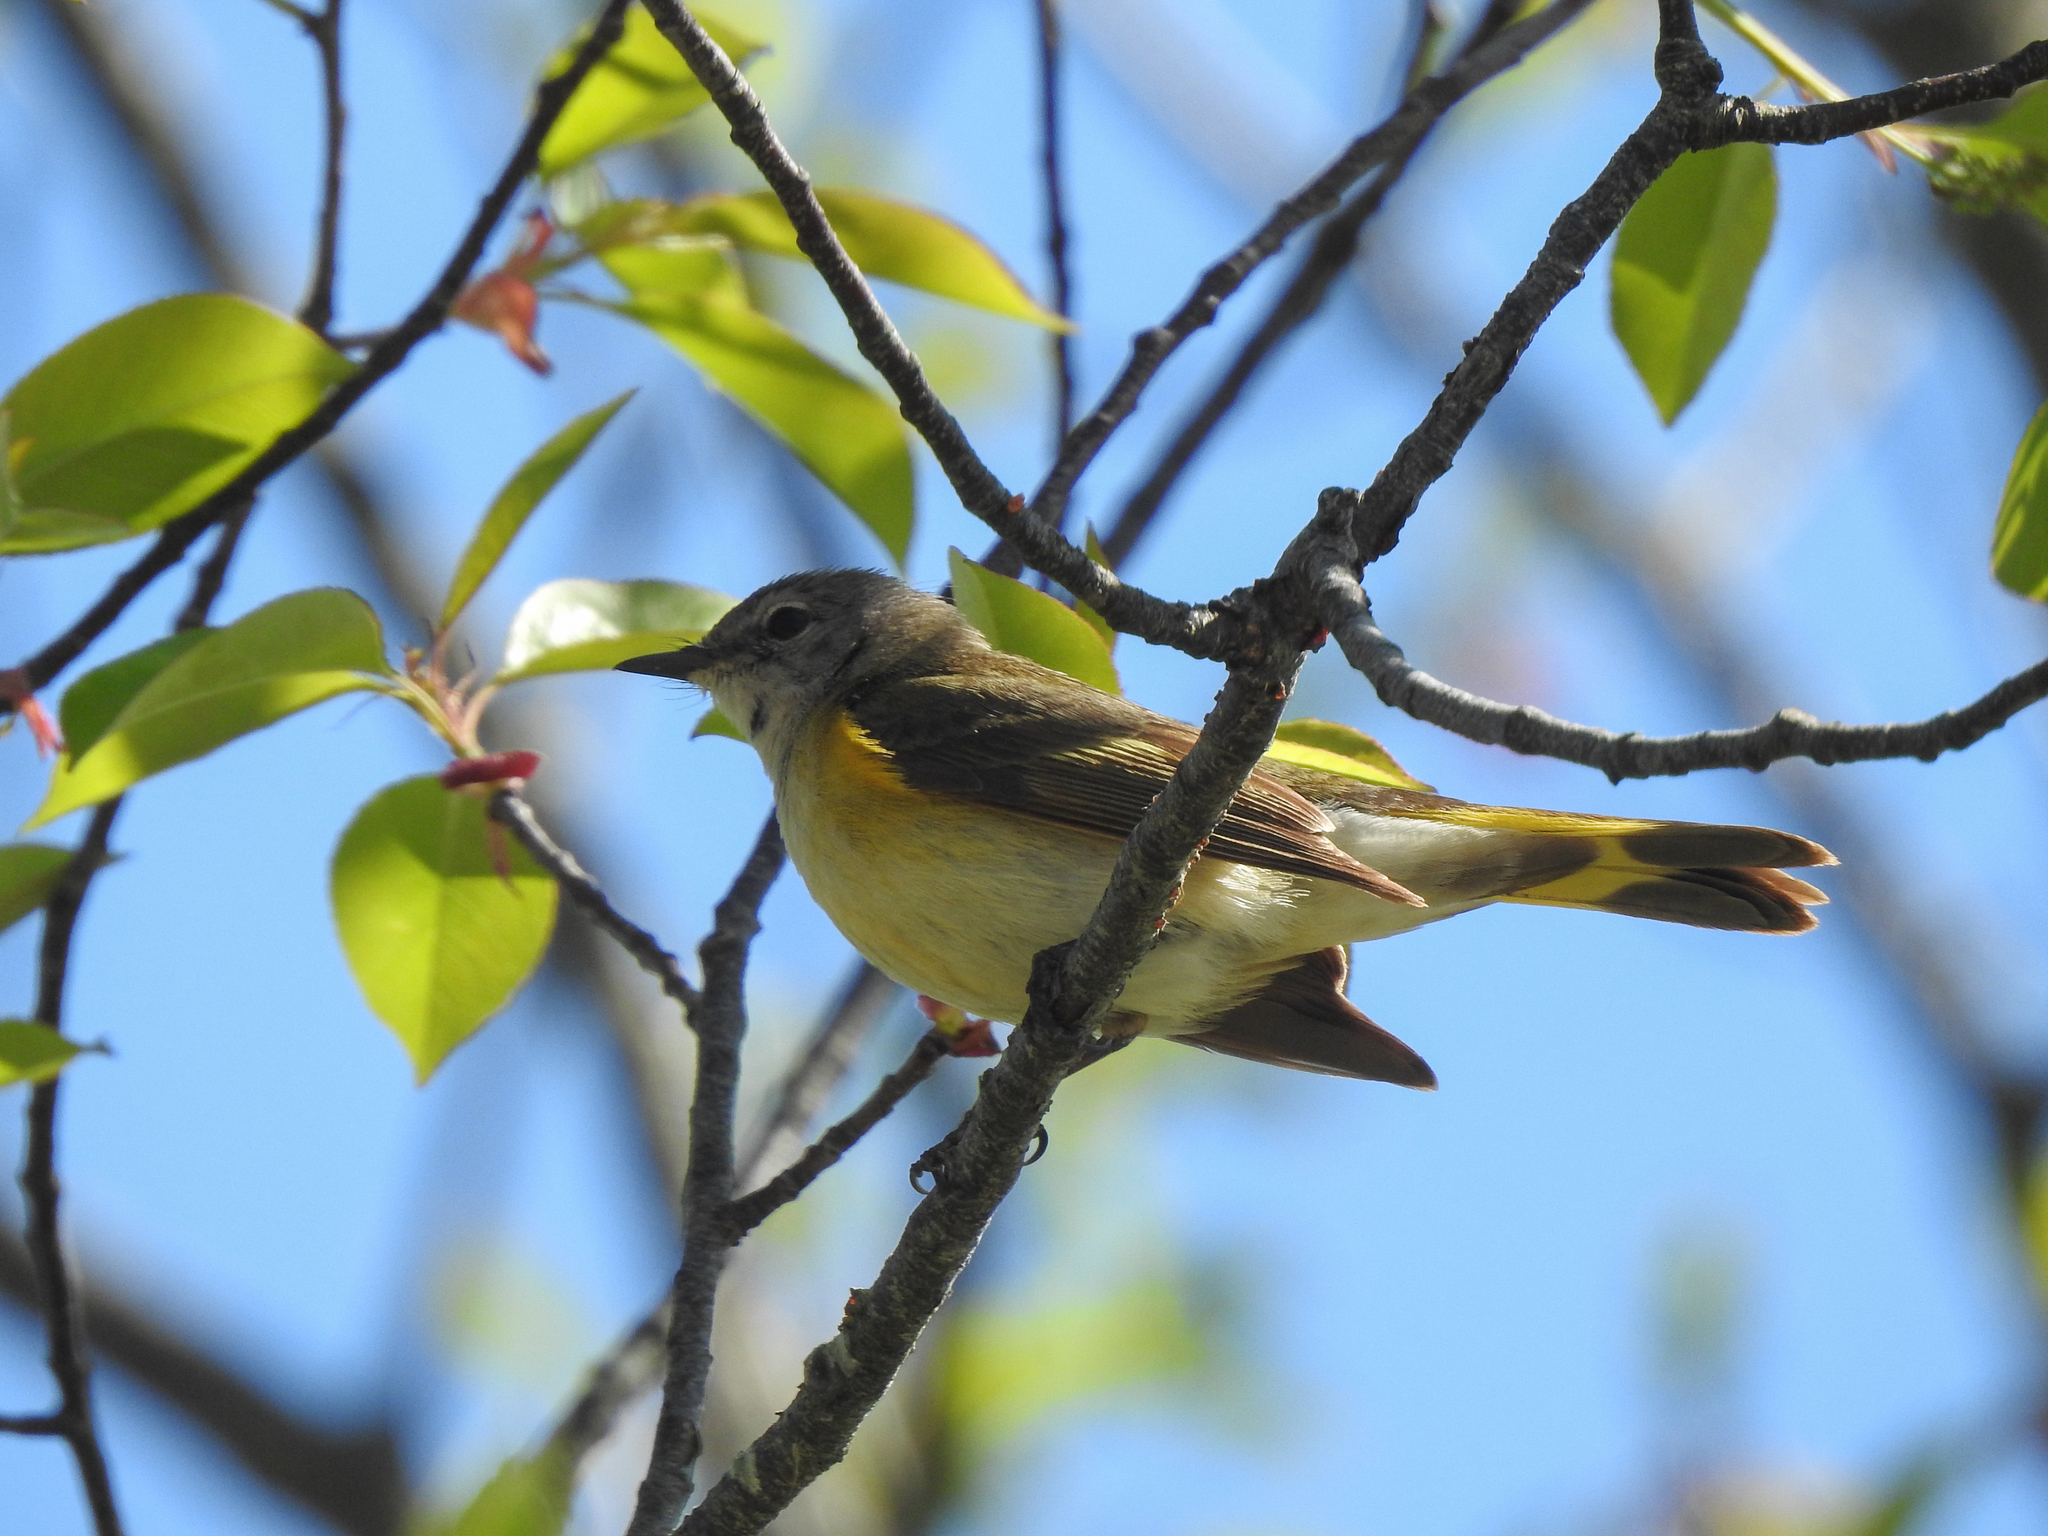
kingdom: Animalia
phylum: Chordata
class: Aves
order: Passeriformes
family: Parulidae
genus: Setophaga
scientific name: Setophaga ruticilla
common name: American redstart
